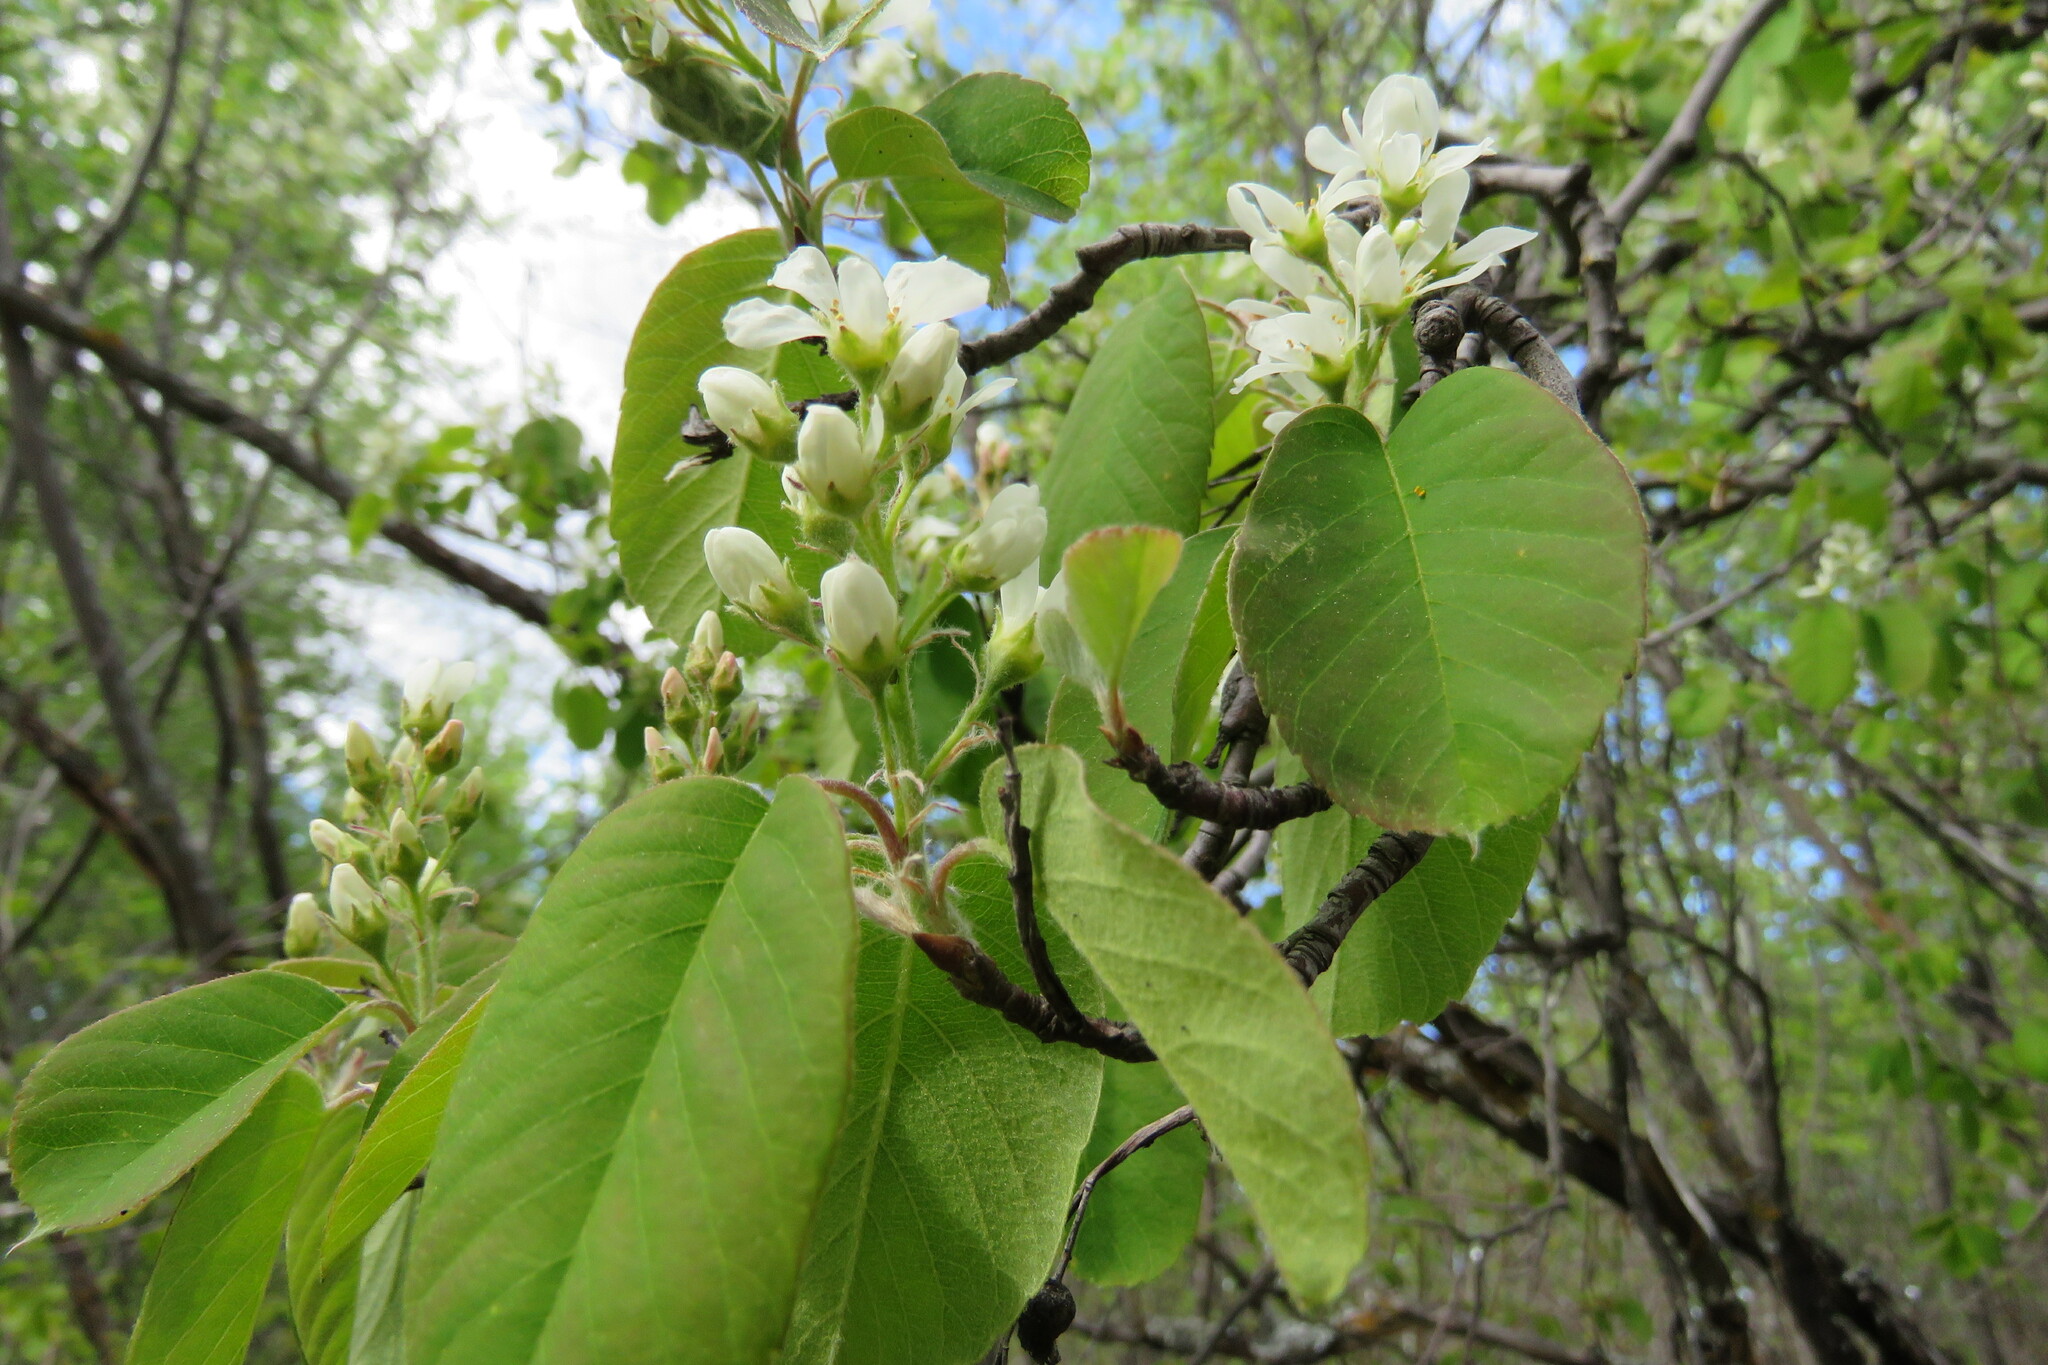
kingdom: Plantae
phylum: Tracheophyta
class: Magnoliopsida
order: Rosales
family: Rosaceae
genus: Amelanchier
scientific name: Amelanchier alnifolia
